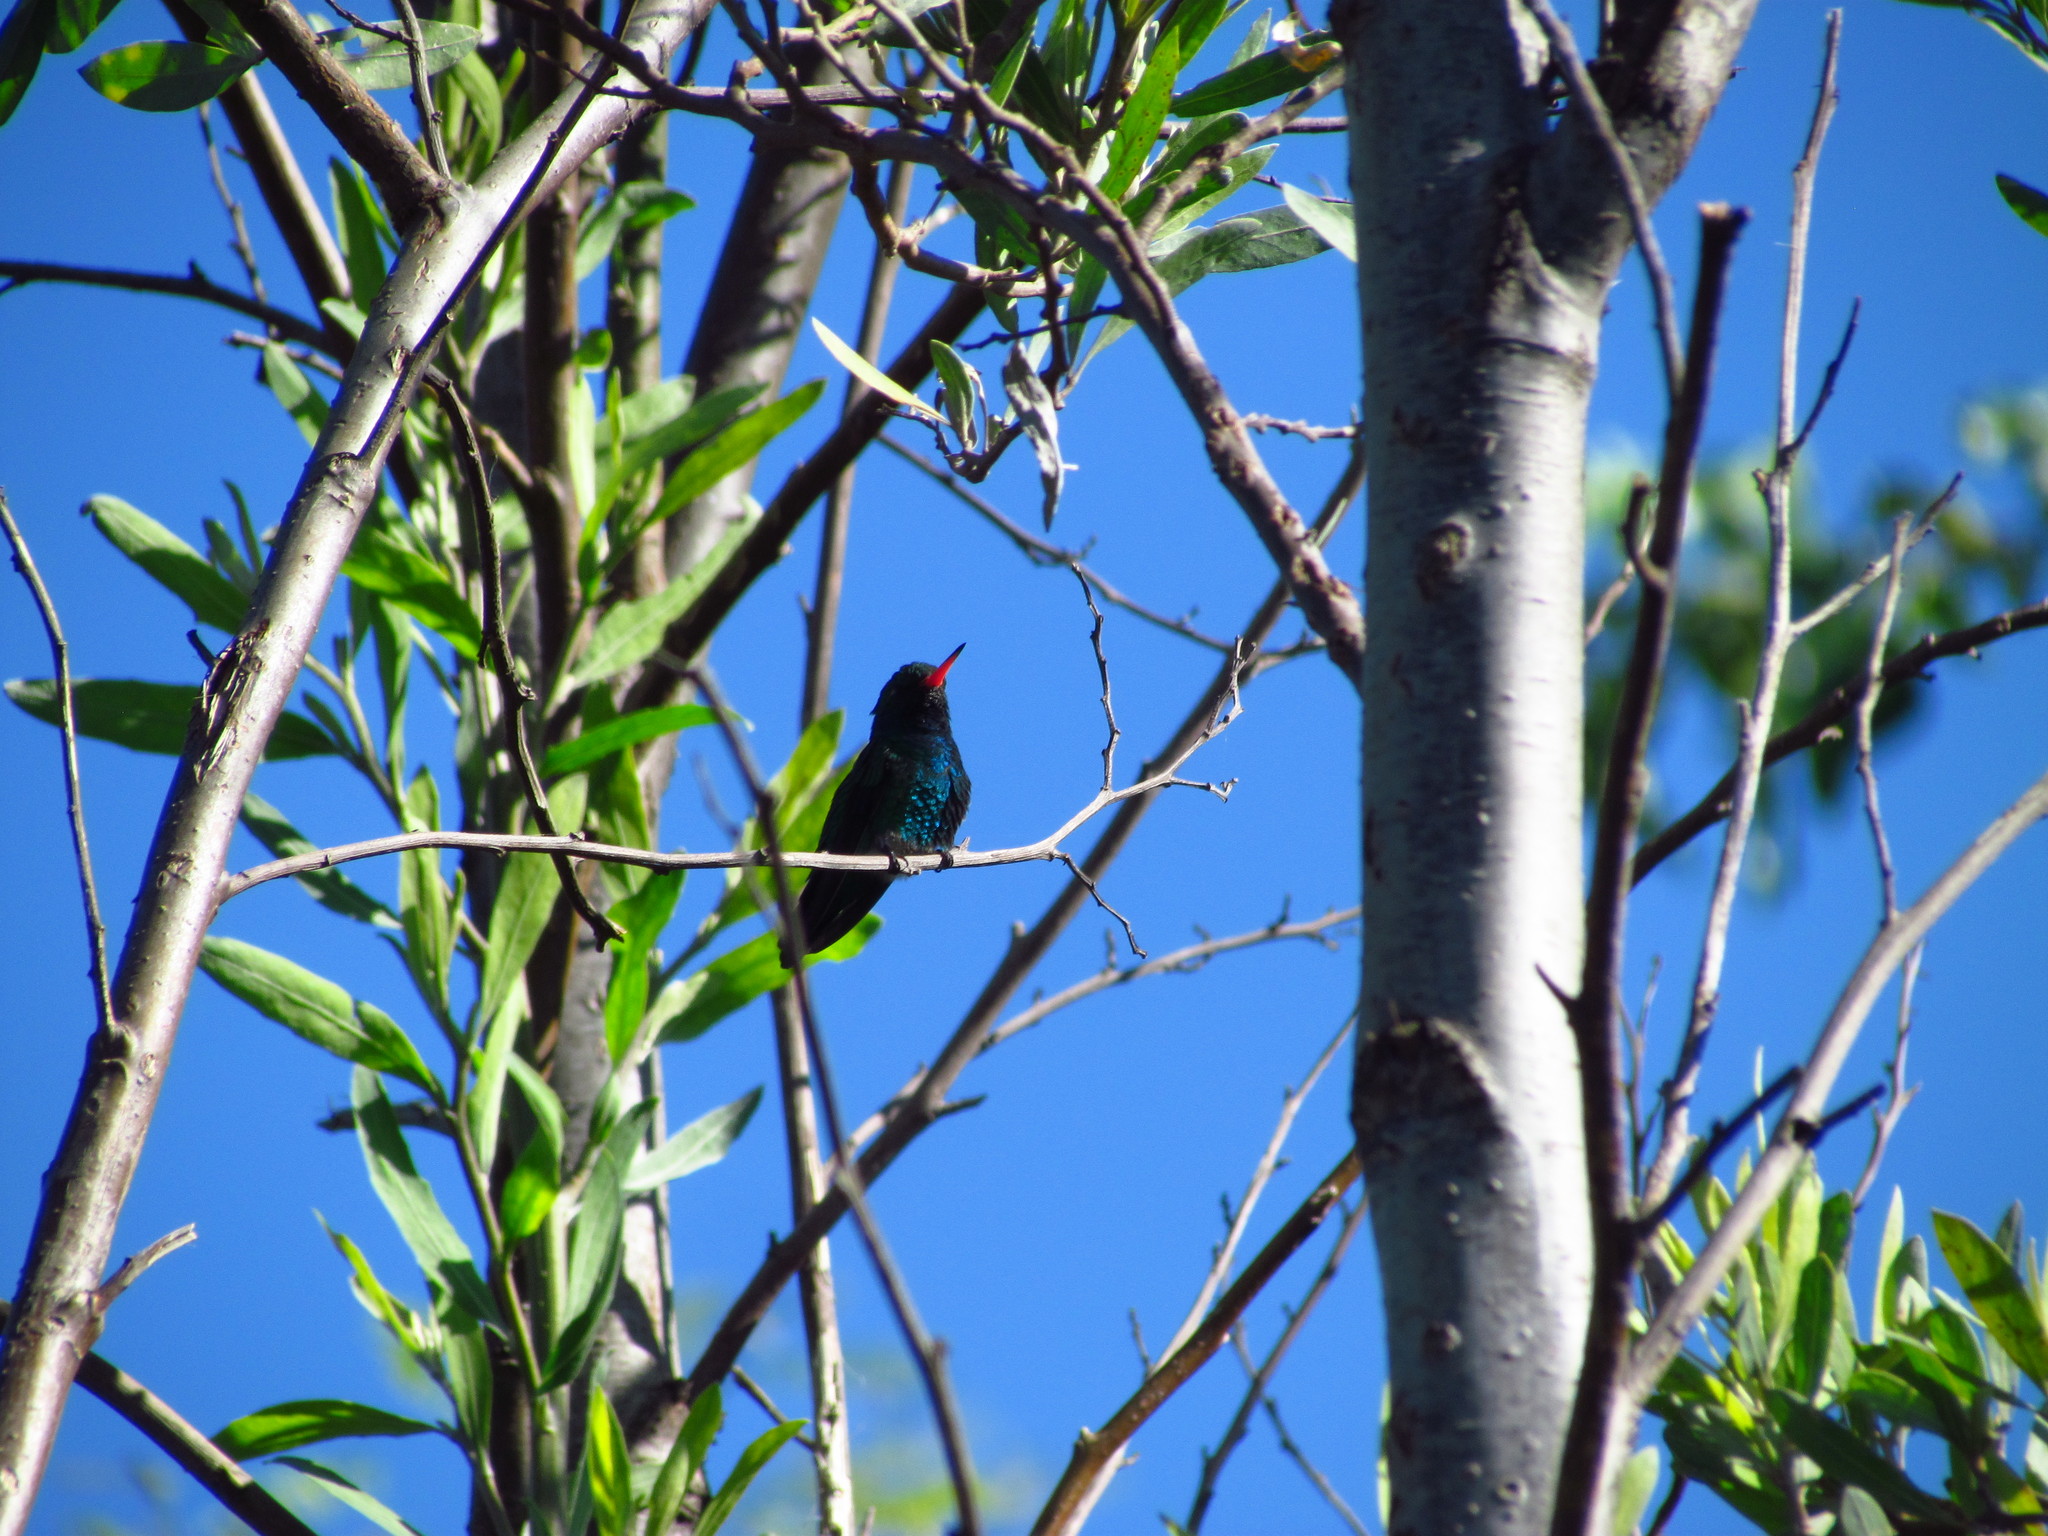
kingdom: Animalia
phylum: Chordata
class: Aves
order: Apodiformes
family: Trochilidae
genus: Chlorostilbon
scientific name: Chlorostilbon lucidus
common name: Glittering-bellied emerald
